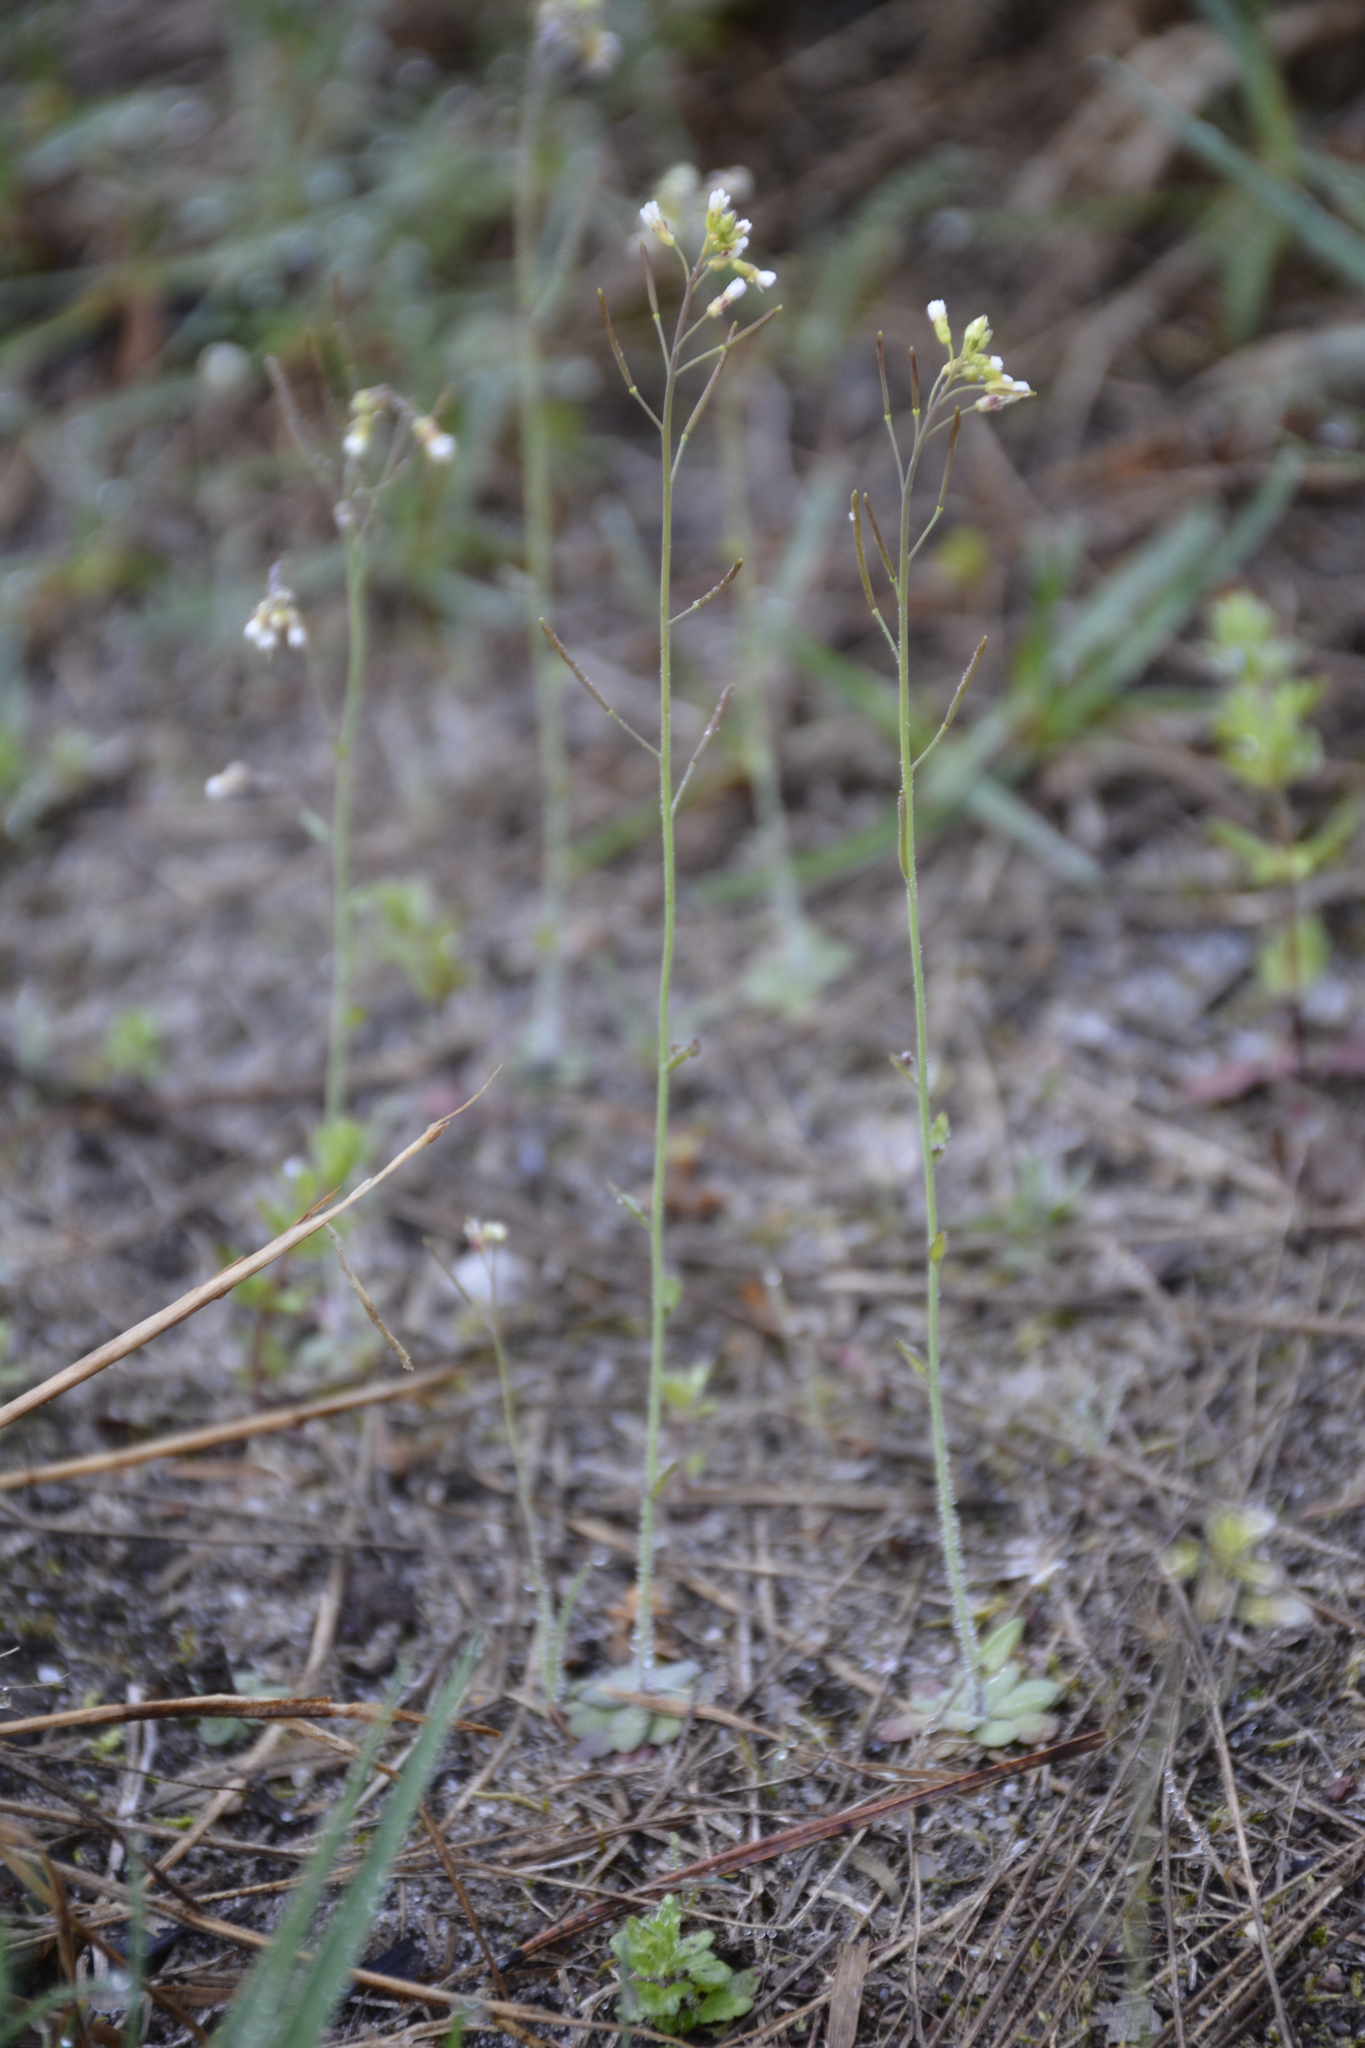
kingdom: Plantae
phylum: Tracheophyta
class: Magnoliopsida
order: Brassicales
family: Brassicaceae
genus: Arabidopsis
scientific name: Arabidopsis thaliana
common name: Thale cress
